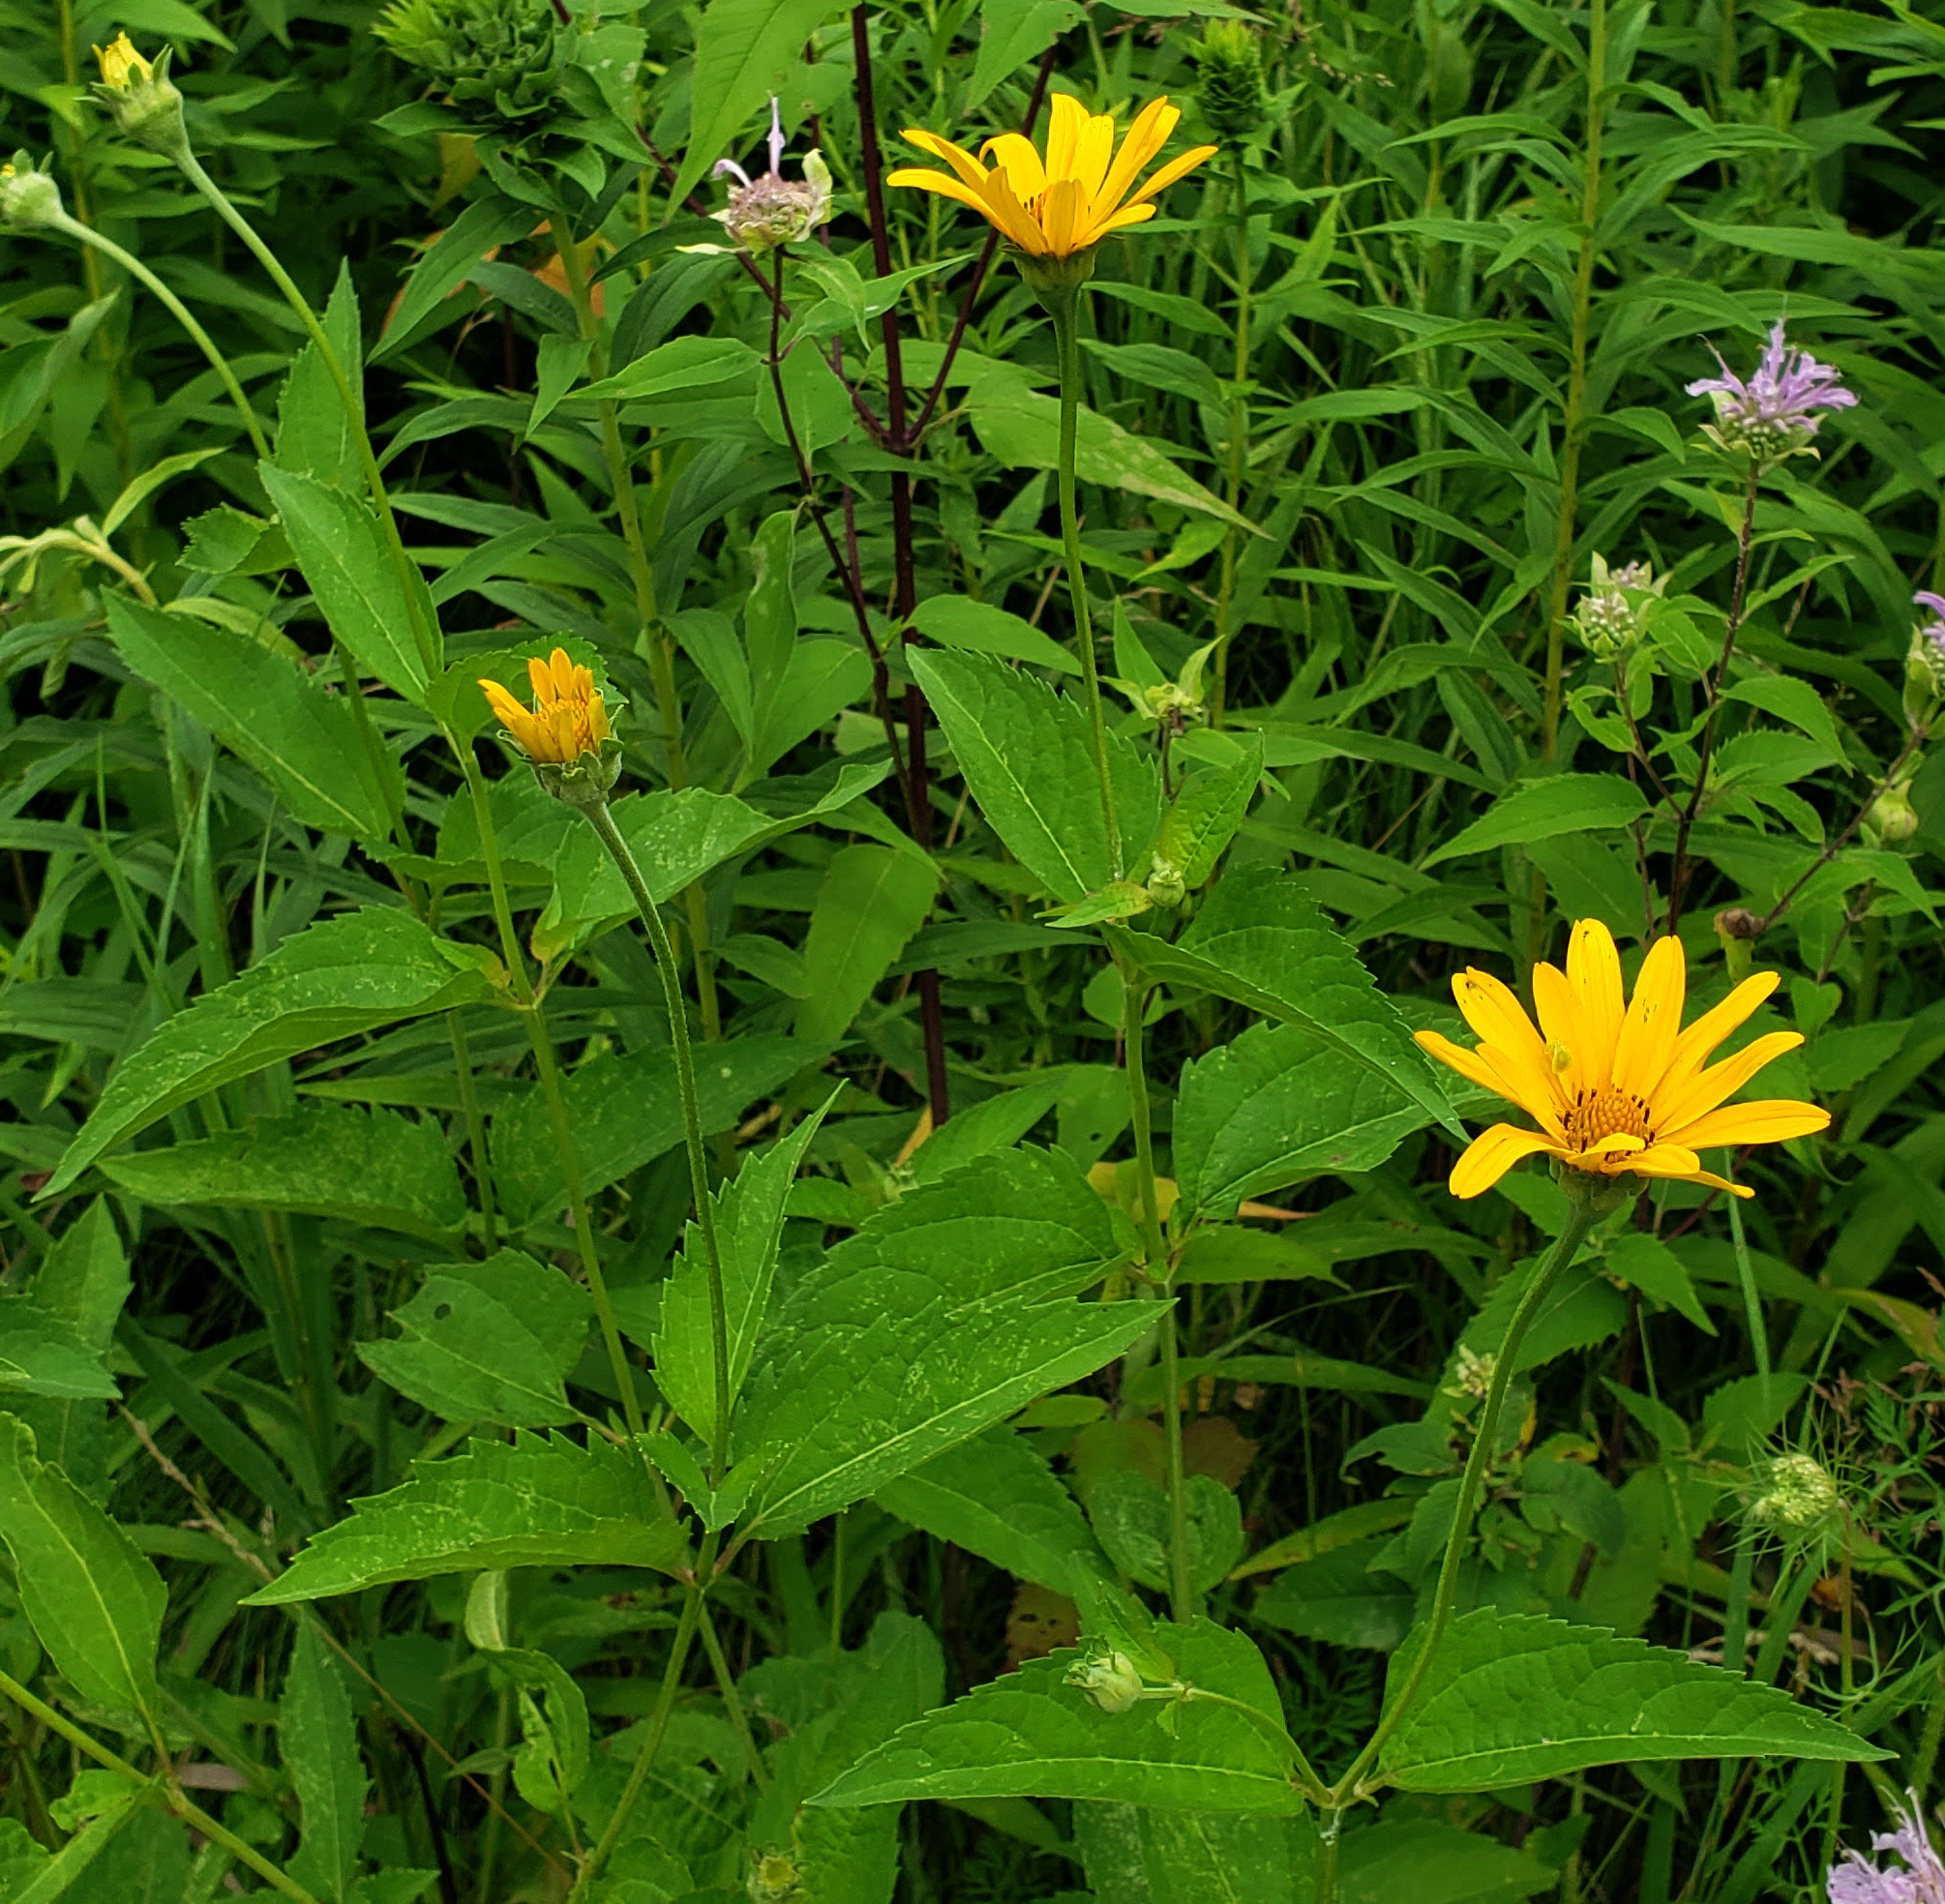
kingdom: Plantae
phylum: Tracheophyta
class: Magnoliopsida
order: Asterales
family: Asteraceae
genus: Heliopsis
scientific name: Heliopsis helianthoides
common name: False sunflower
